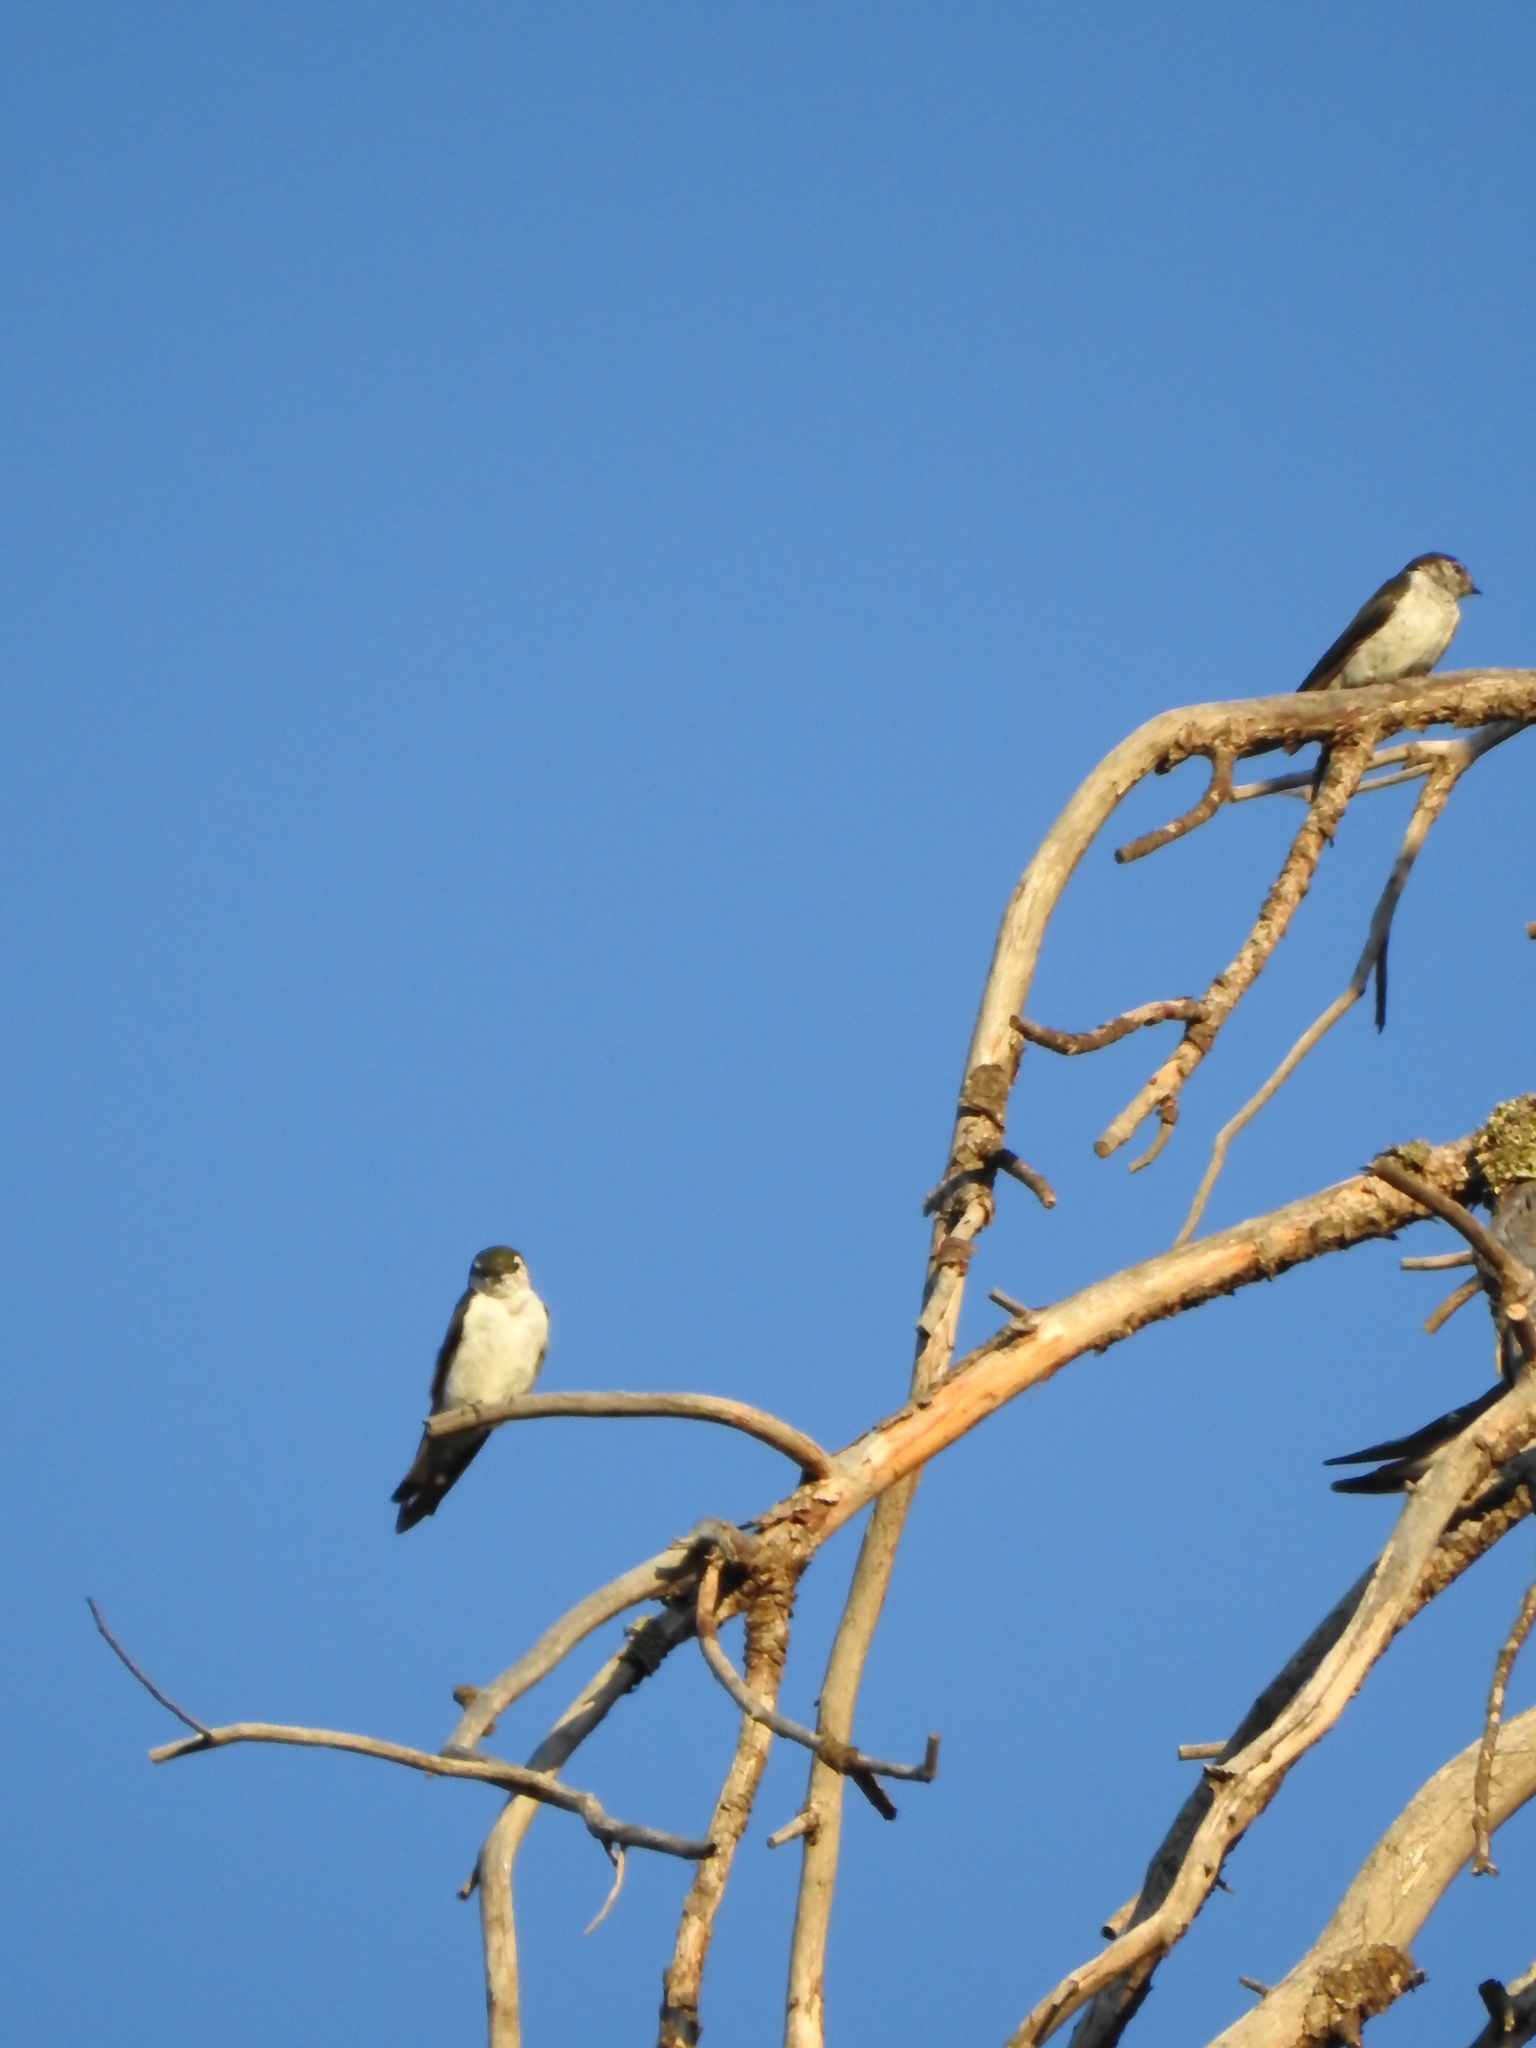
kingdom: Animalia
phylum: Chordata
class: Aves
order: Passeriformes
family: Hirundinidae
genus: Tachycineta
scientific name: Tachycineta thalassina
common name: Violet-green swallow
